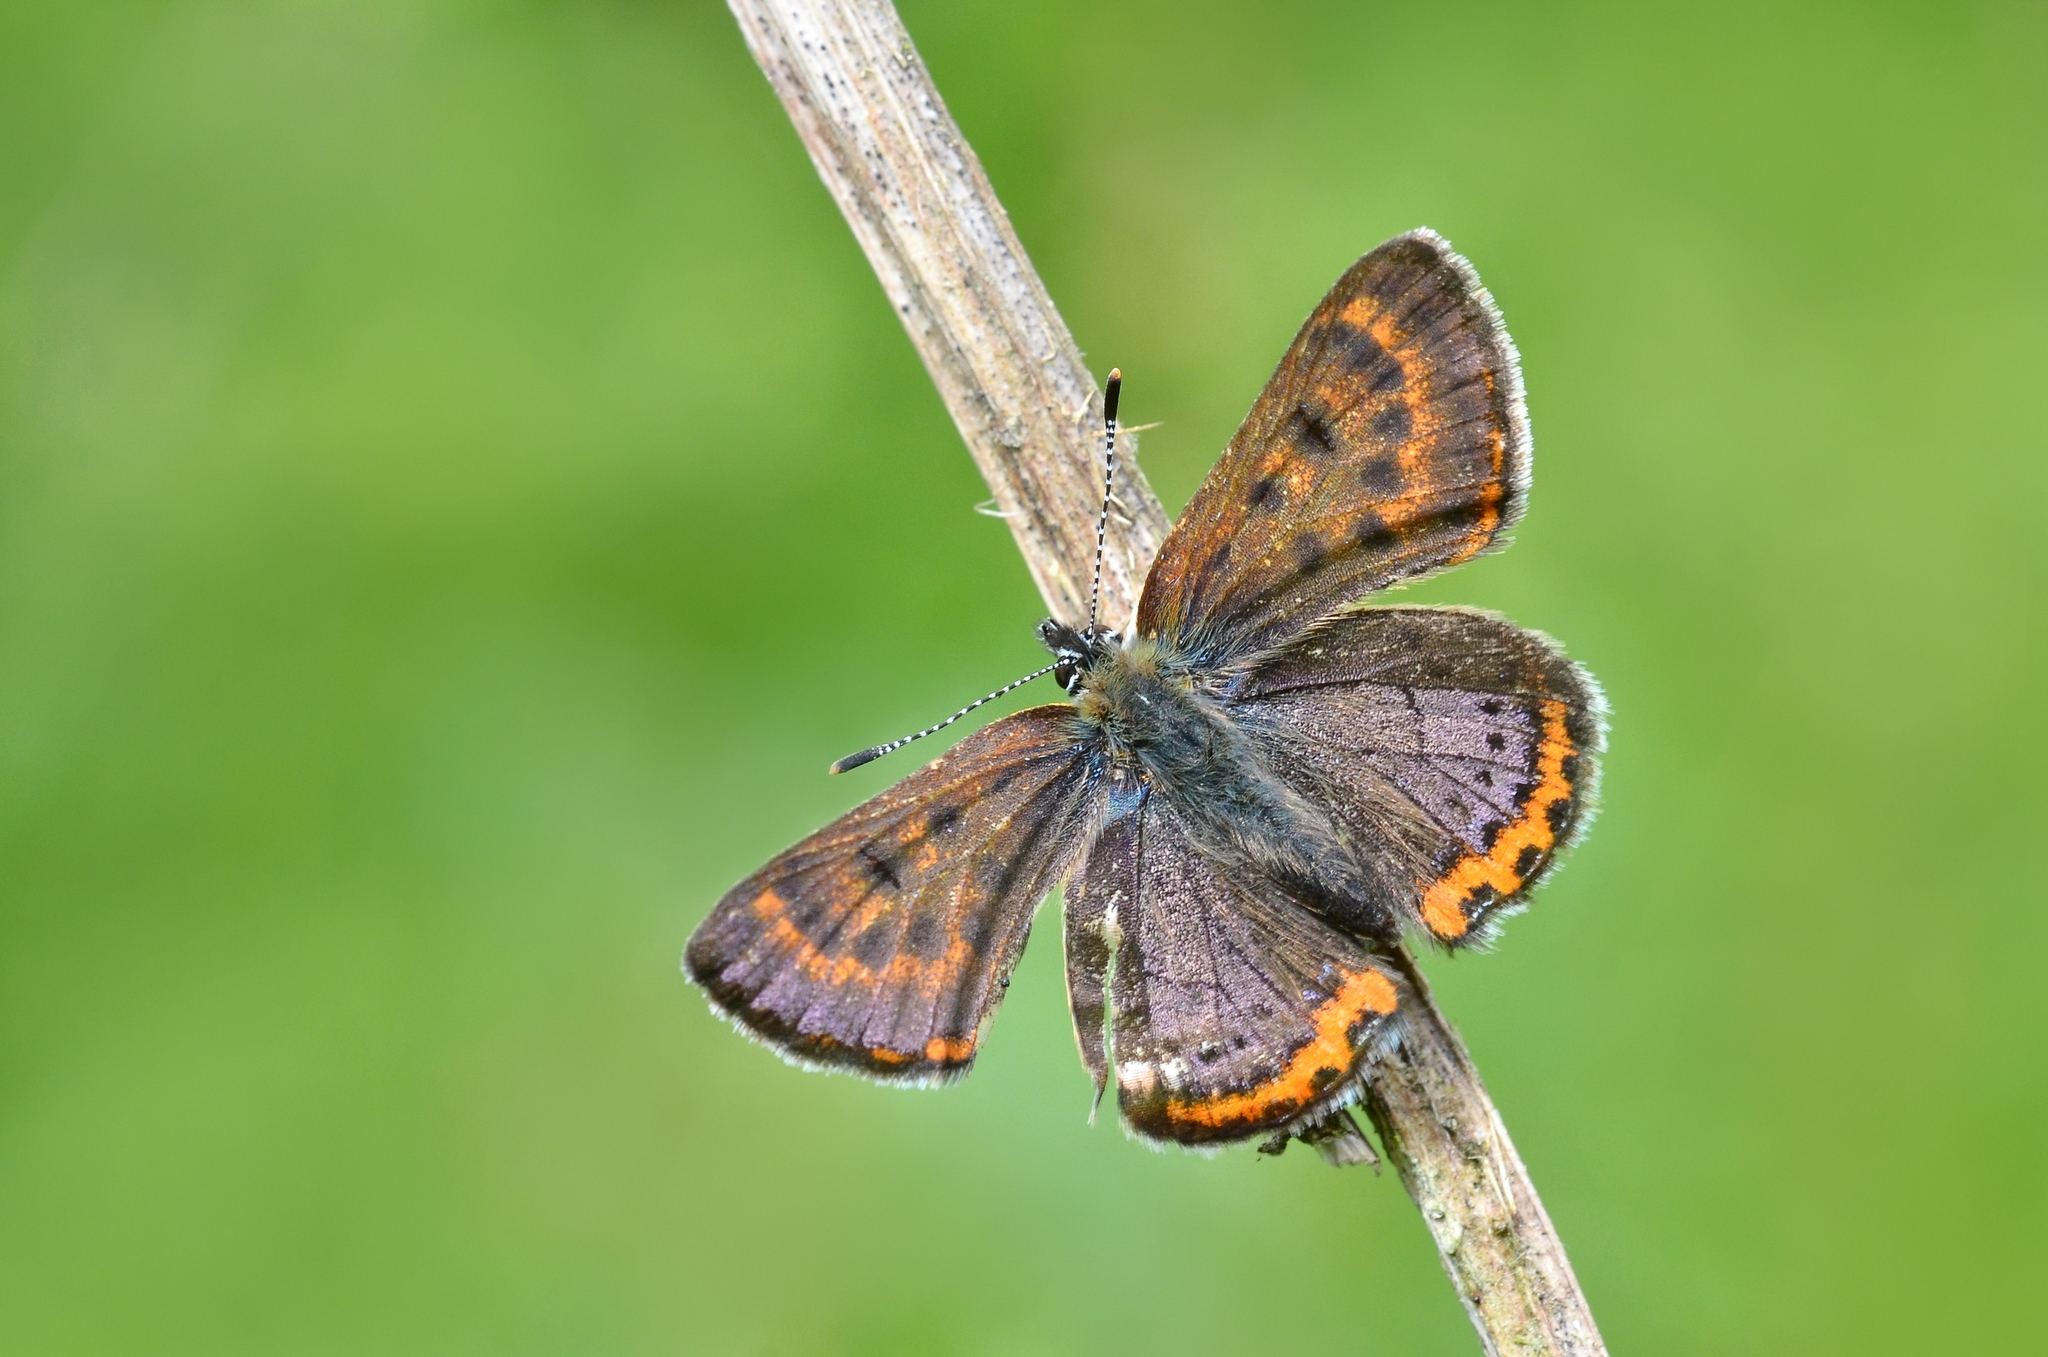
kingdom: Animalia
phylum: Arthropoda
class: Insecta
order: Lepidoptera
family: Lycaenidae
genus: Helleia
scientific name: Helleia helle
